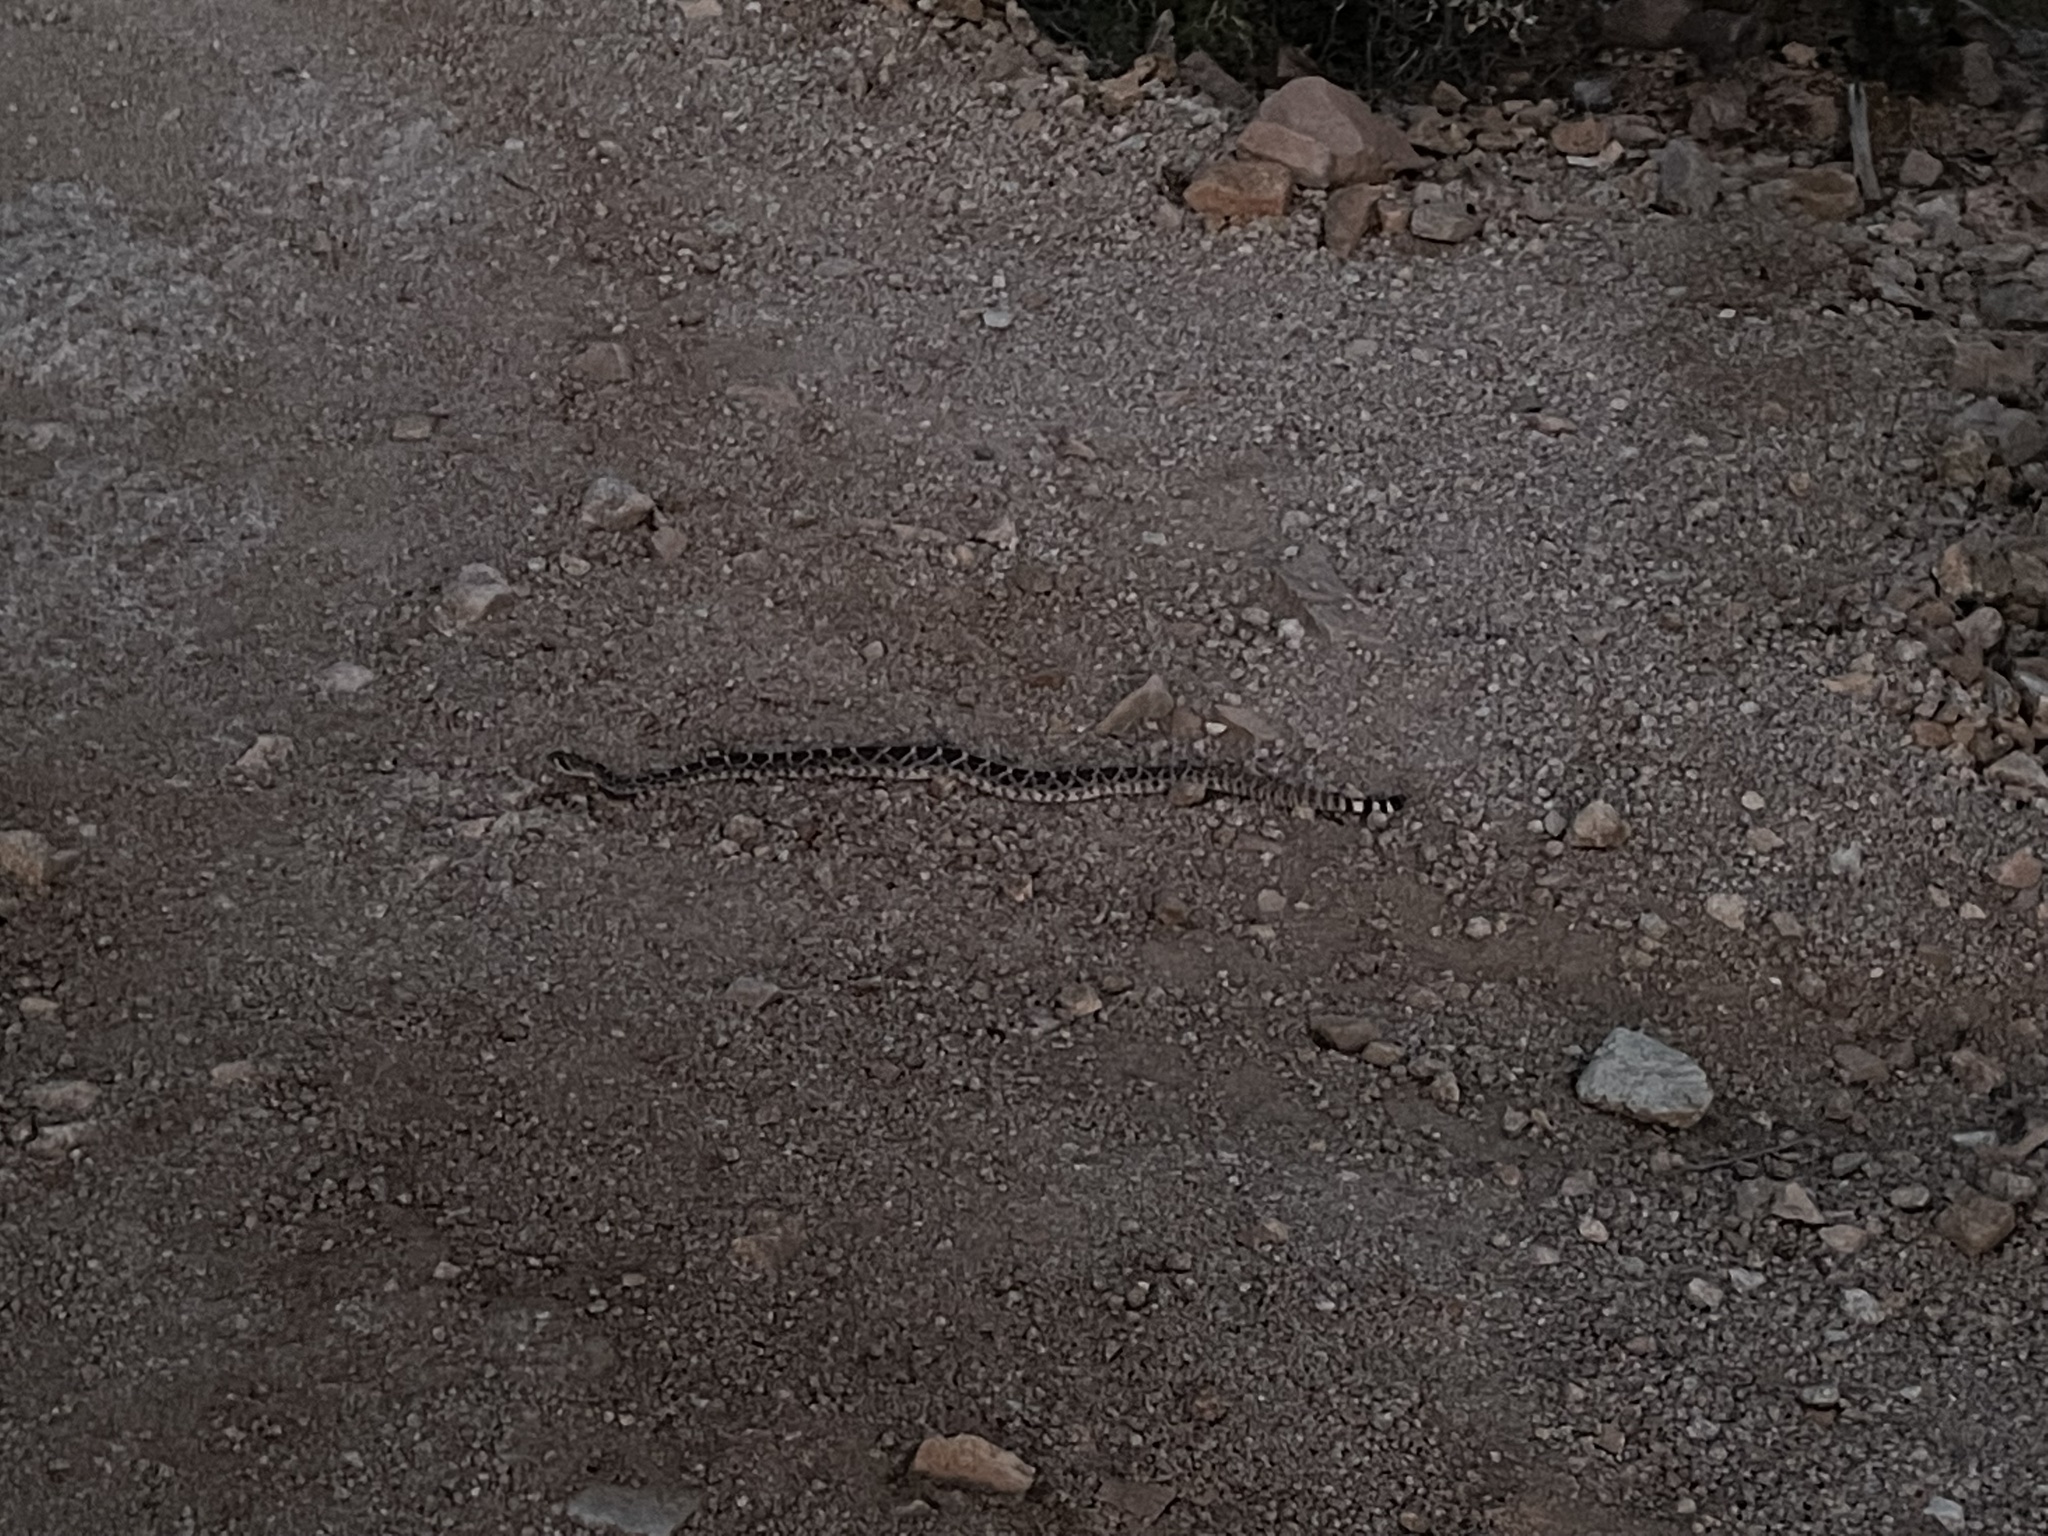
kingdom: Animalia
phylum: Chordata
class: Squamata
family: Viperidae
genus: Crotalus
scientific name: Crotalus atrox
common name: Western diamond-backed rattlesnake
